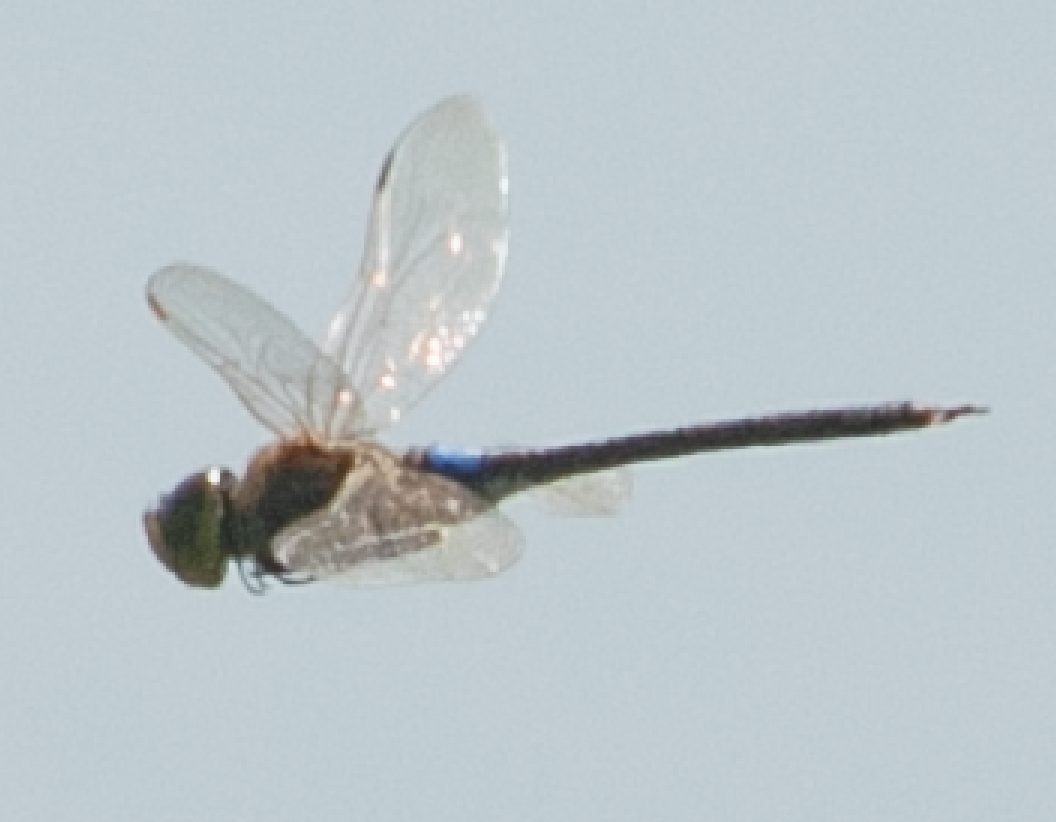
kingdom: Animalia
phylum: Arthropoda
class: Insecta
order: Odonata
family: Aeshnidae
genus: Anax
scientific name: Anax ephippiger
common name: Vagrant emperor
